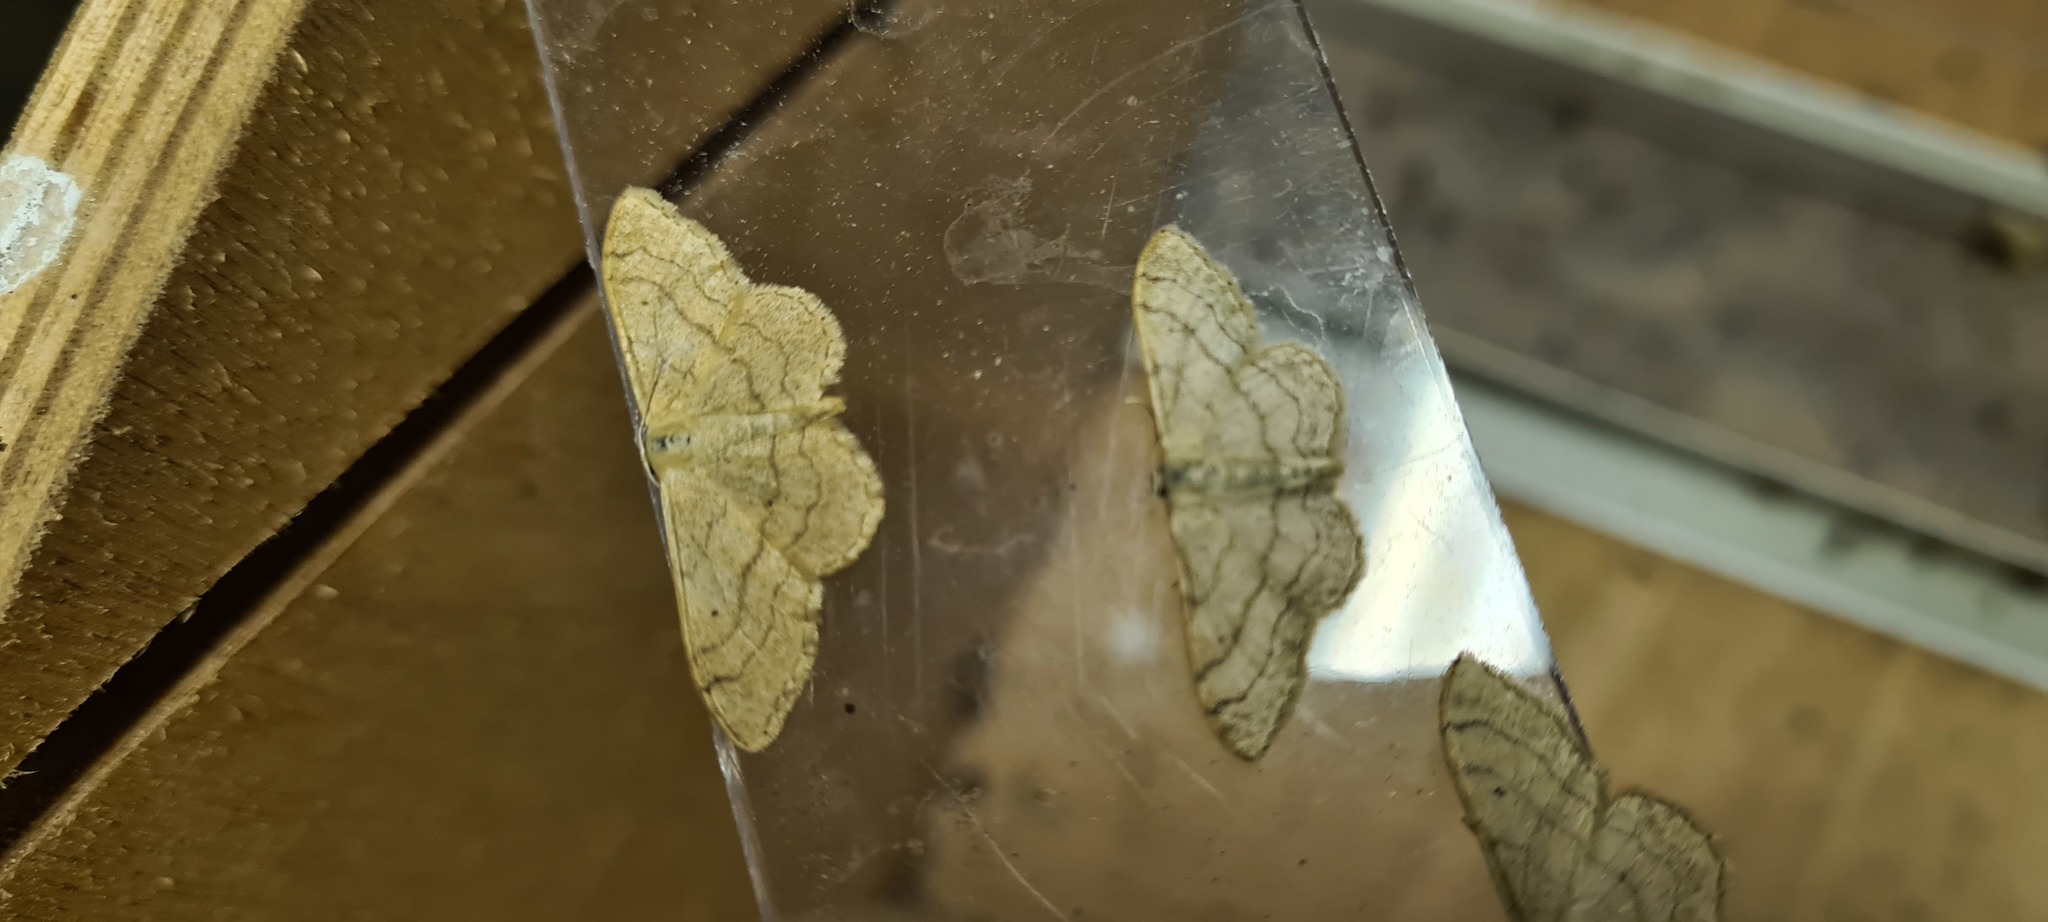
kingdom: Animalia
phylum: Arthropoda
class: Insecta
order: Lepidoptera
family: Geometridae
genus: Idaea
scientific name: Idaea aversata
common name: Riband wave
